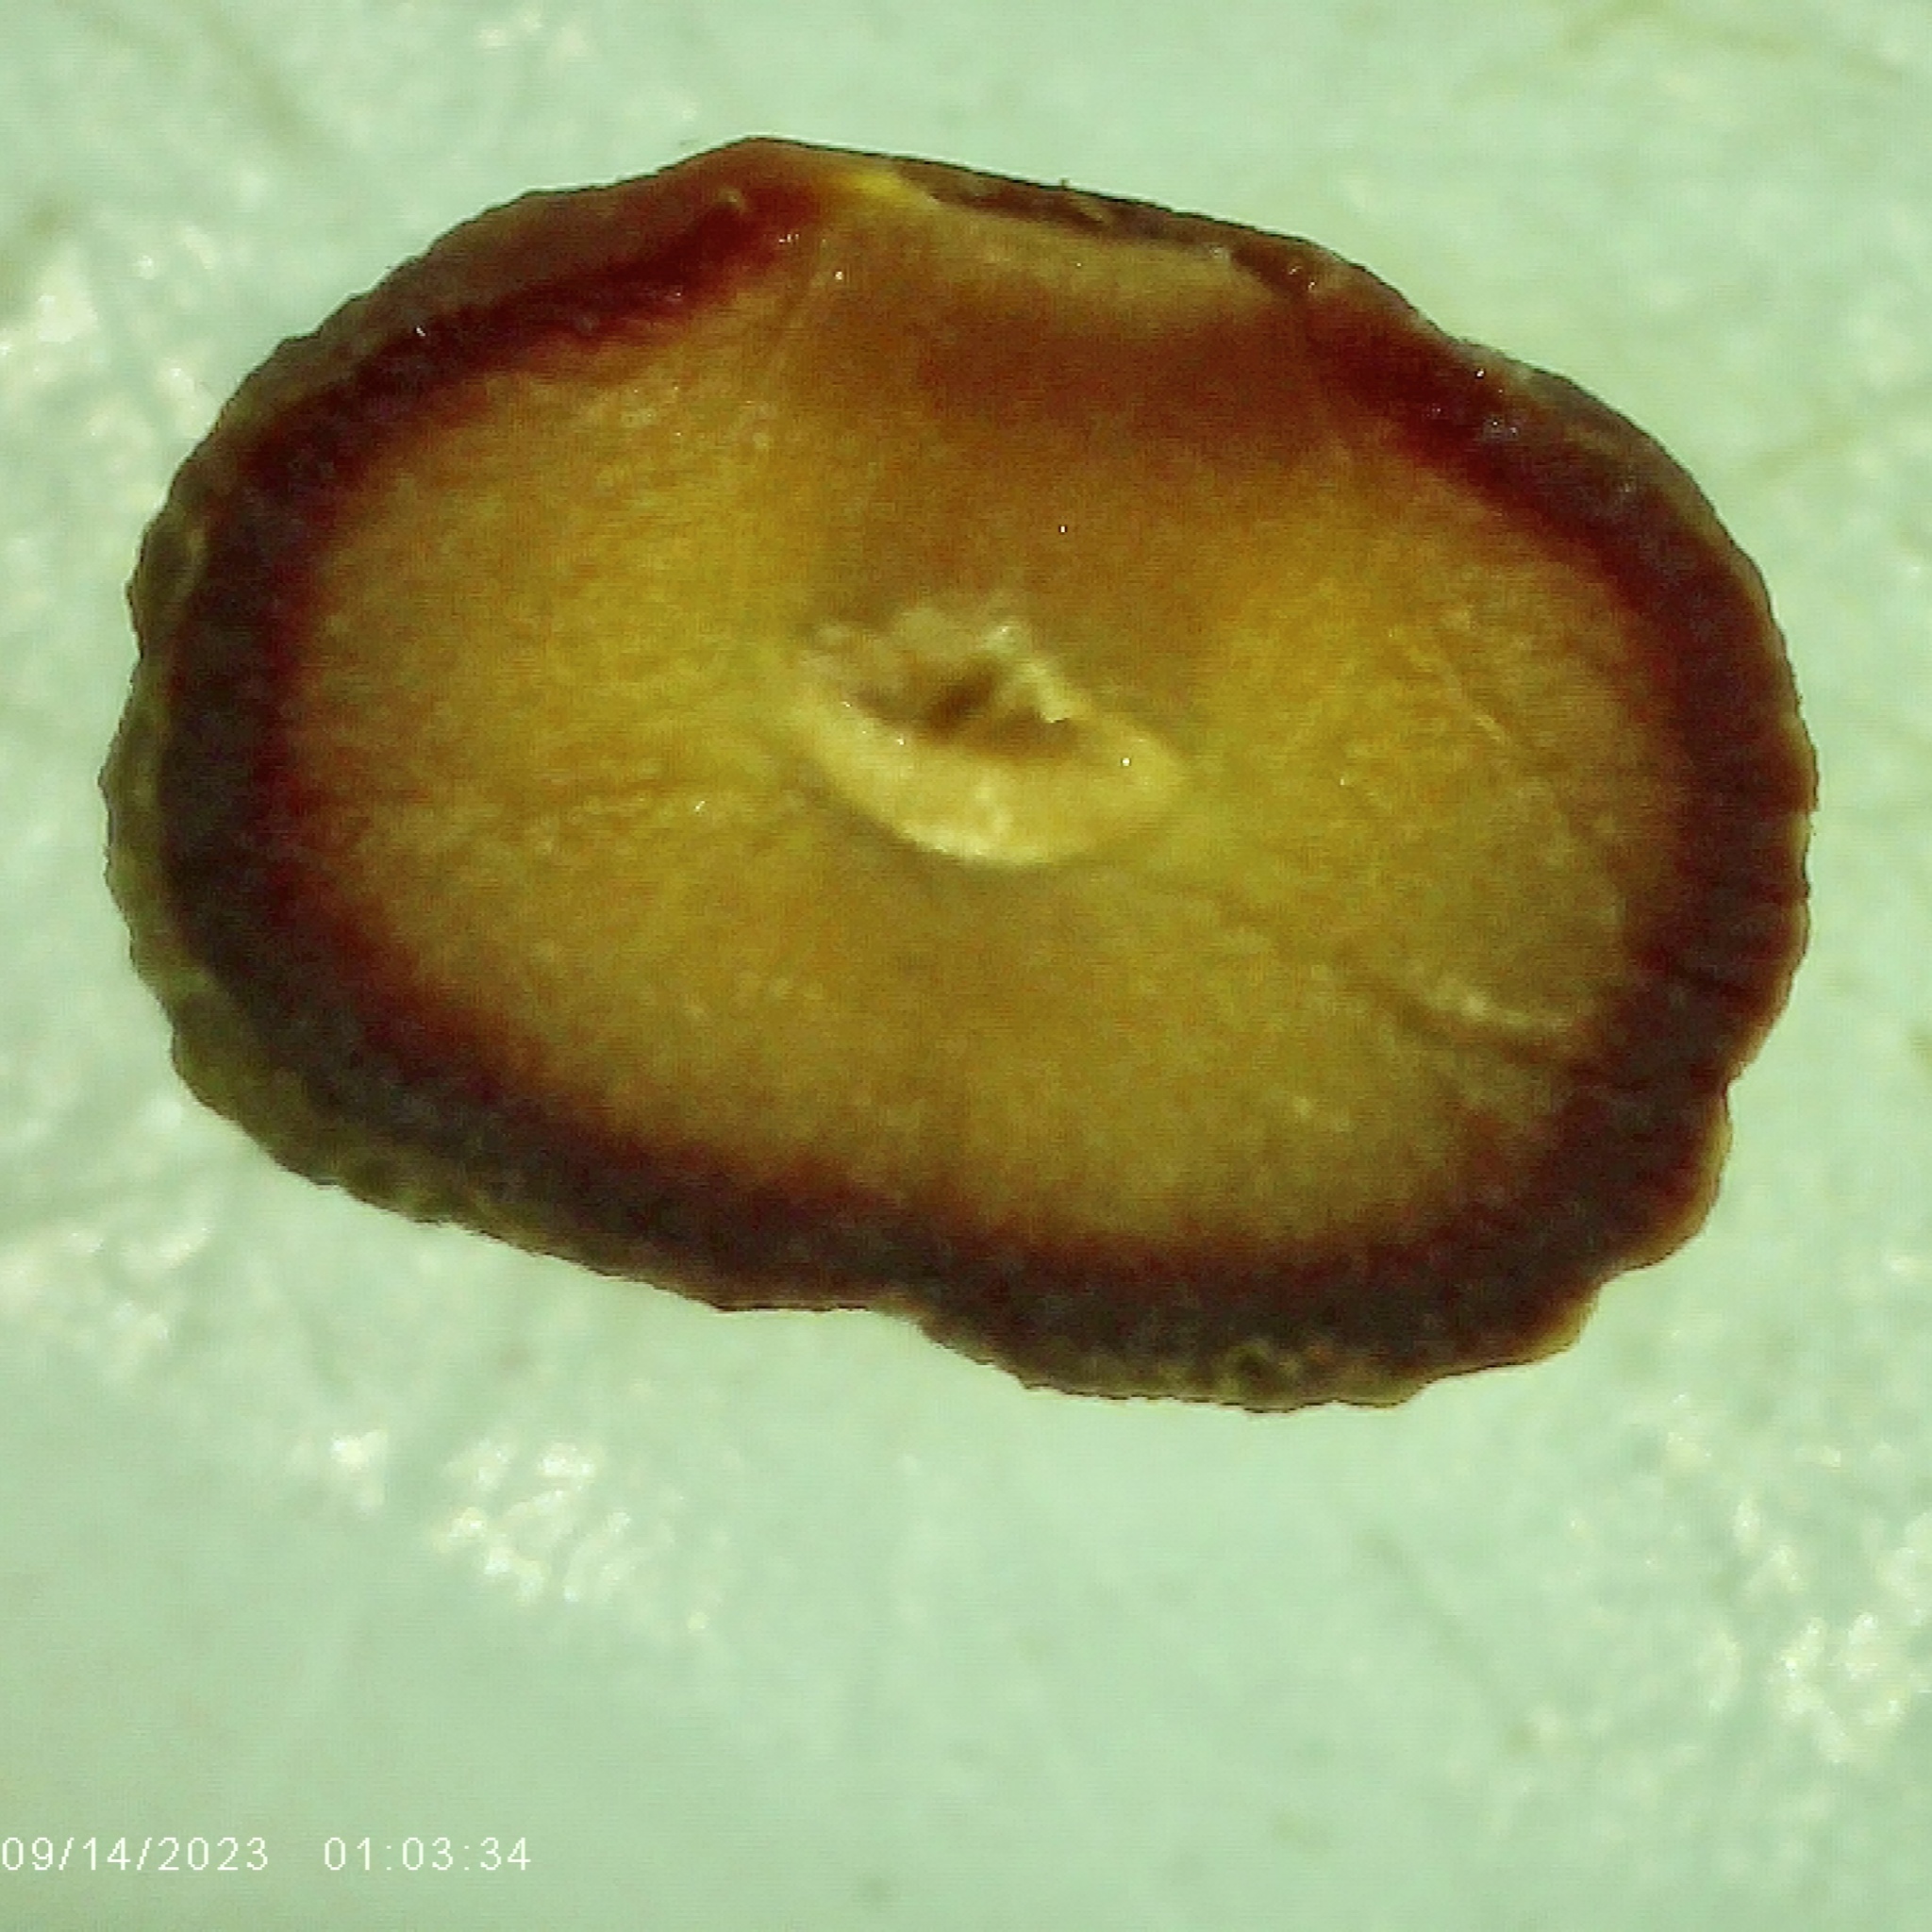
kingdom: Animalia
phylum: Arthropoda
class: Insecta
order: Hymenoptera
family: Cynipidae
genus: Kokkocynips
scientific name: Kokkocynips imbricariae
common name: Banded bullet gall wasp
